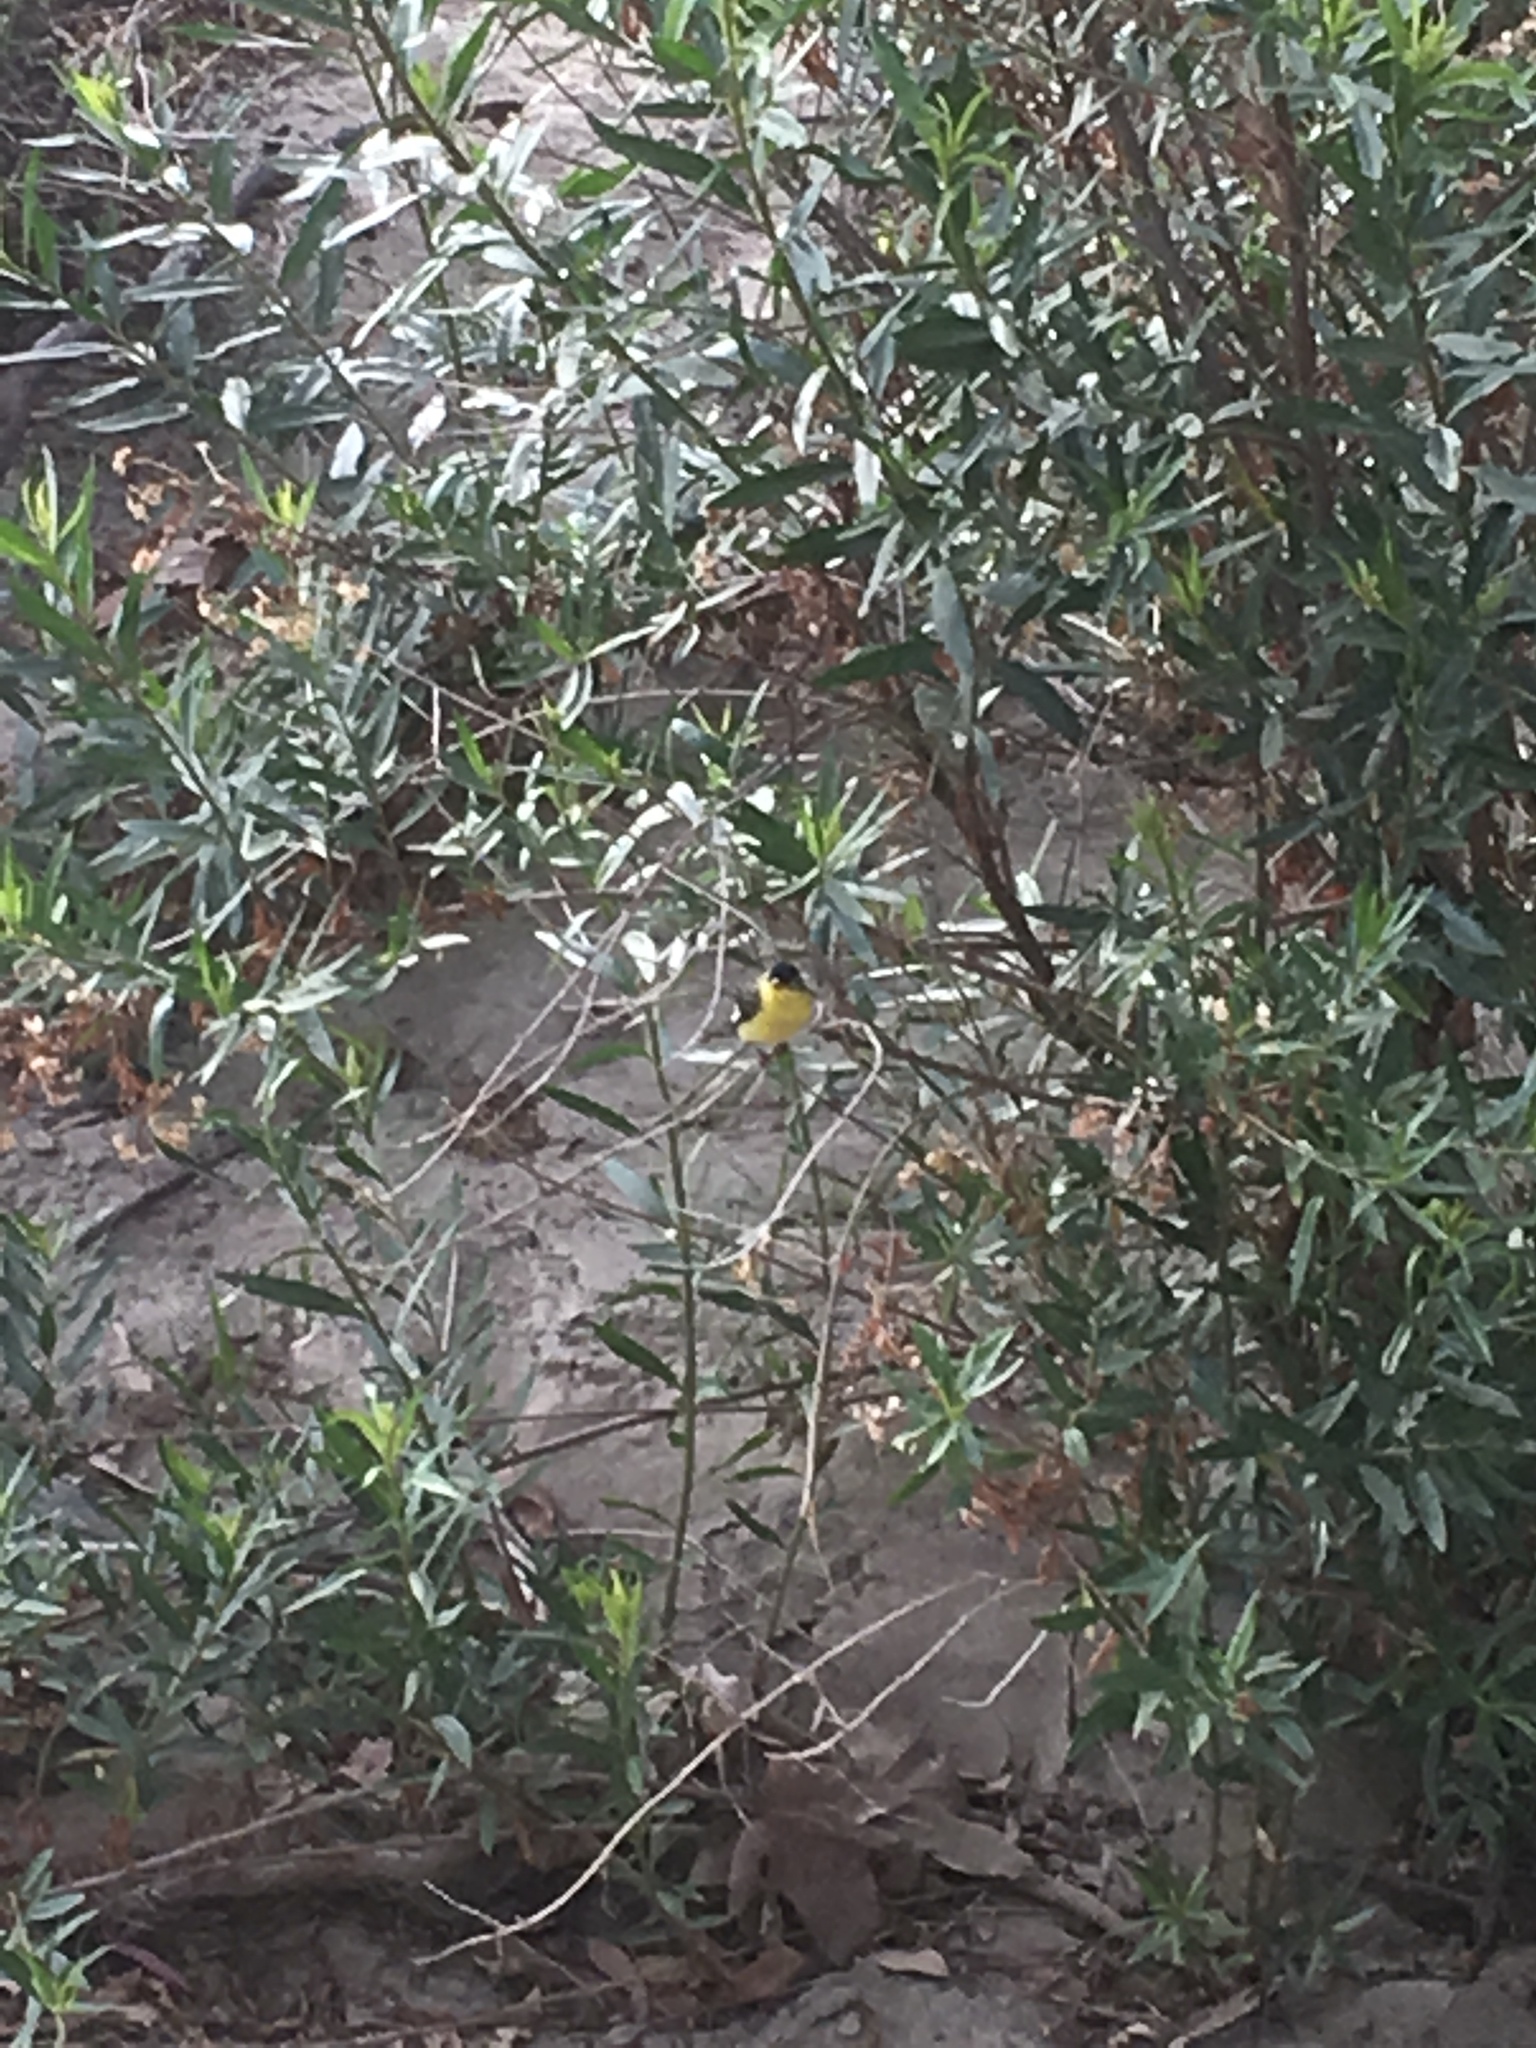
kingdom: Animalia
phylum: Chordata
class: Aves
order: Passeriformes
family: Fringillidae
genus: Spinus
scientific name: Spinus psaltria
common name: Lesser goldfinch
